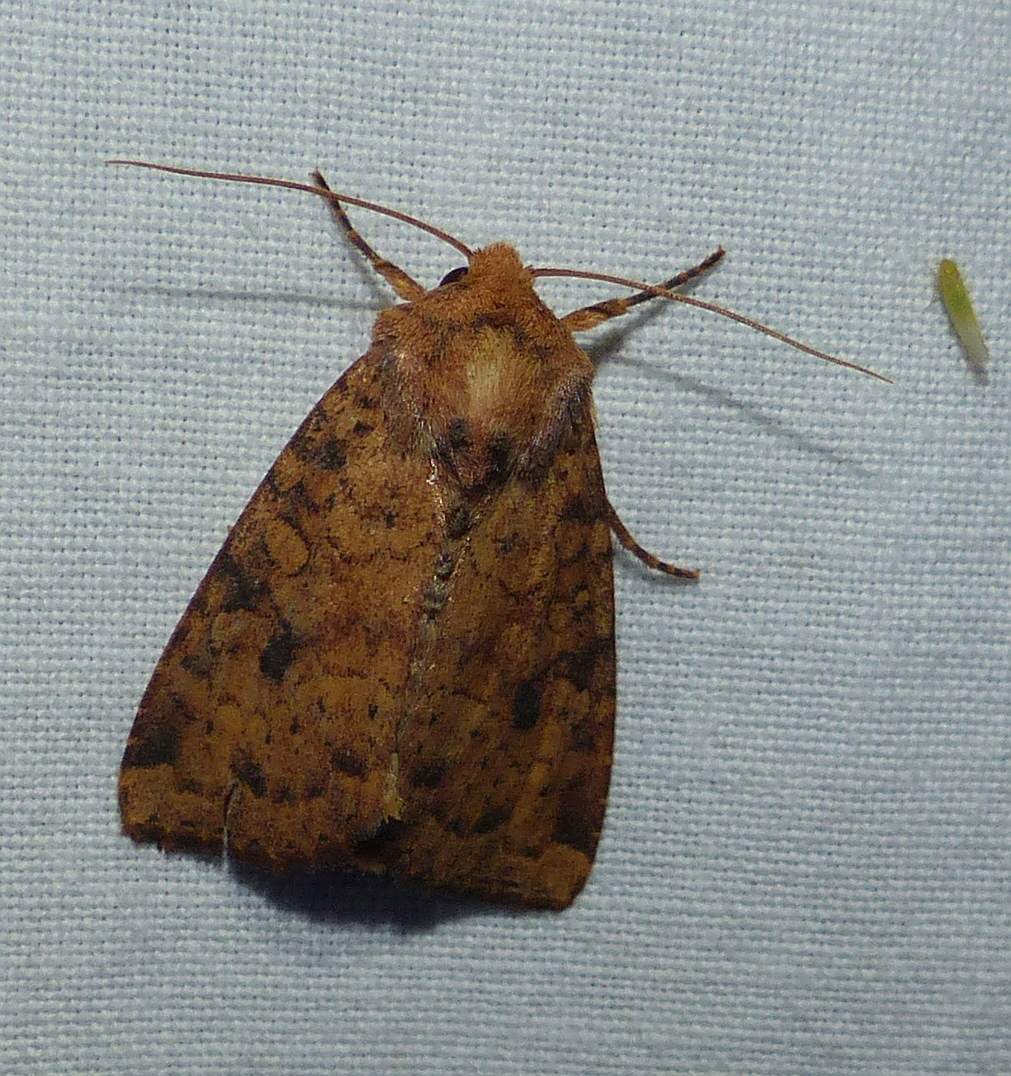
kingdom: Animalia
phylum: Arthropoda
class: Insecta
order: Lepidoptera
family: Noctuidae
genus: Agrochola
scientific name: Agrochola bicolorago
